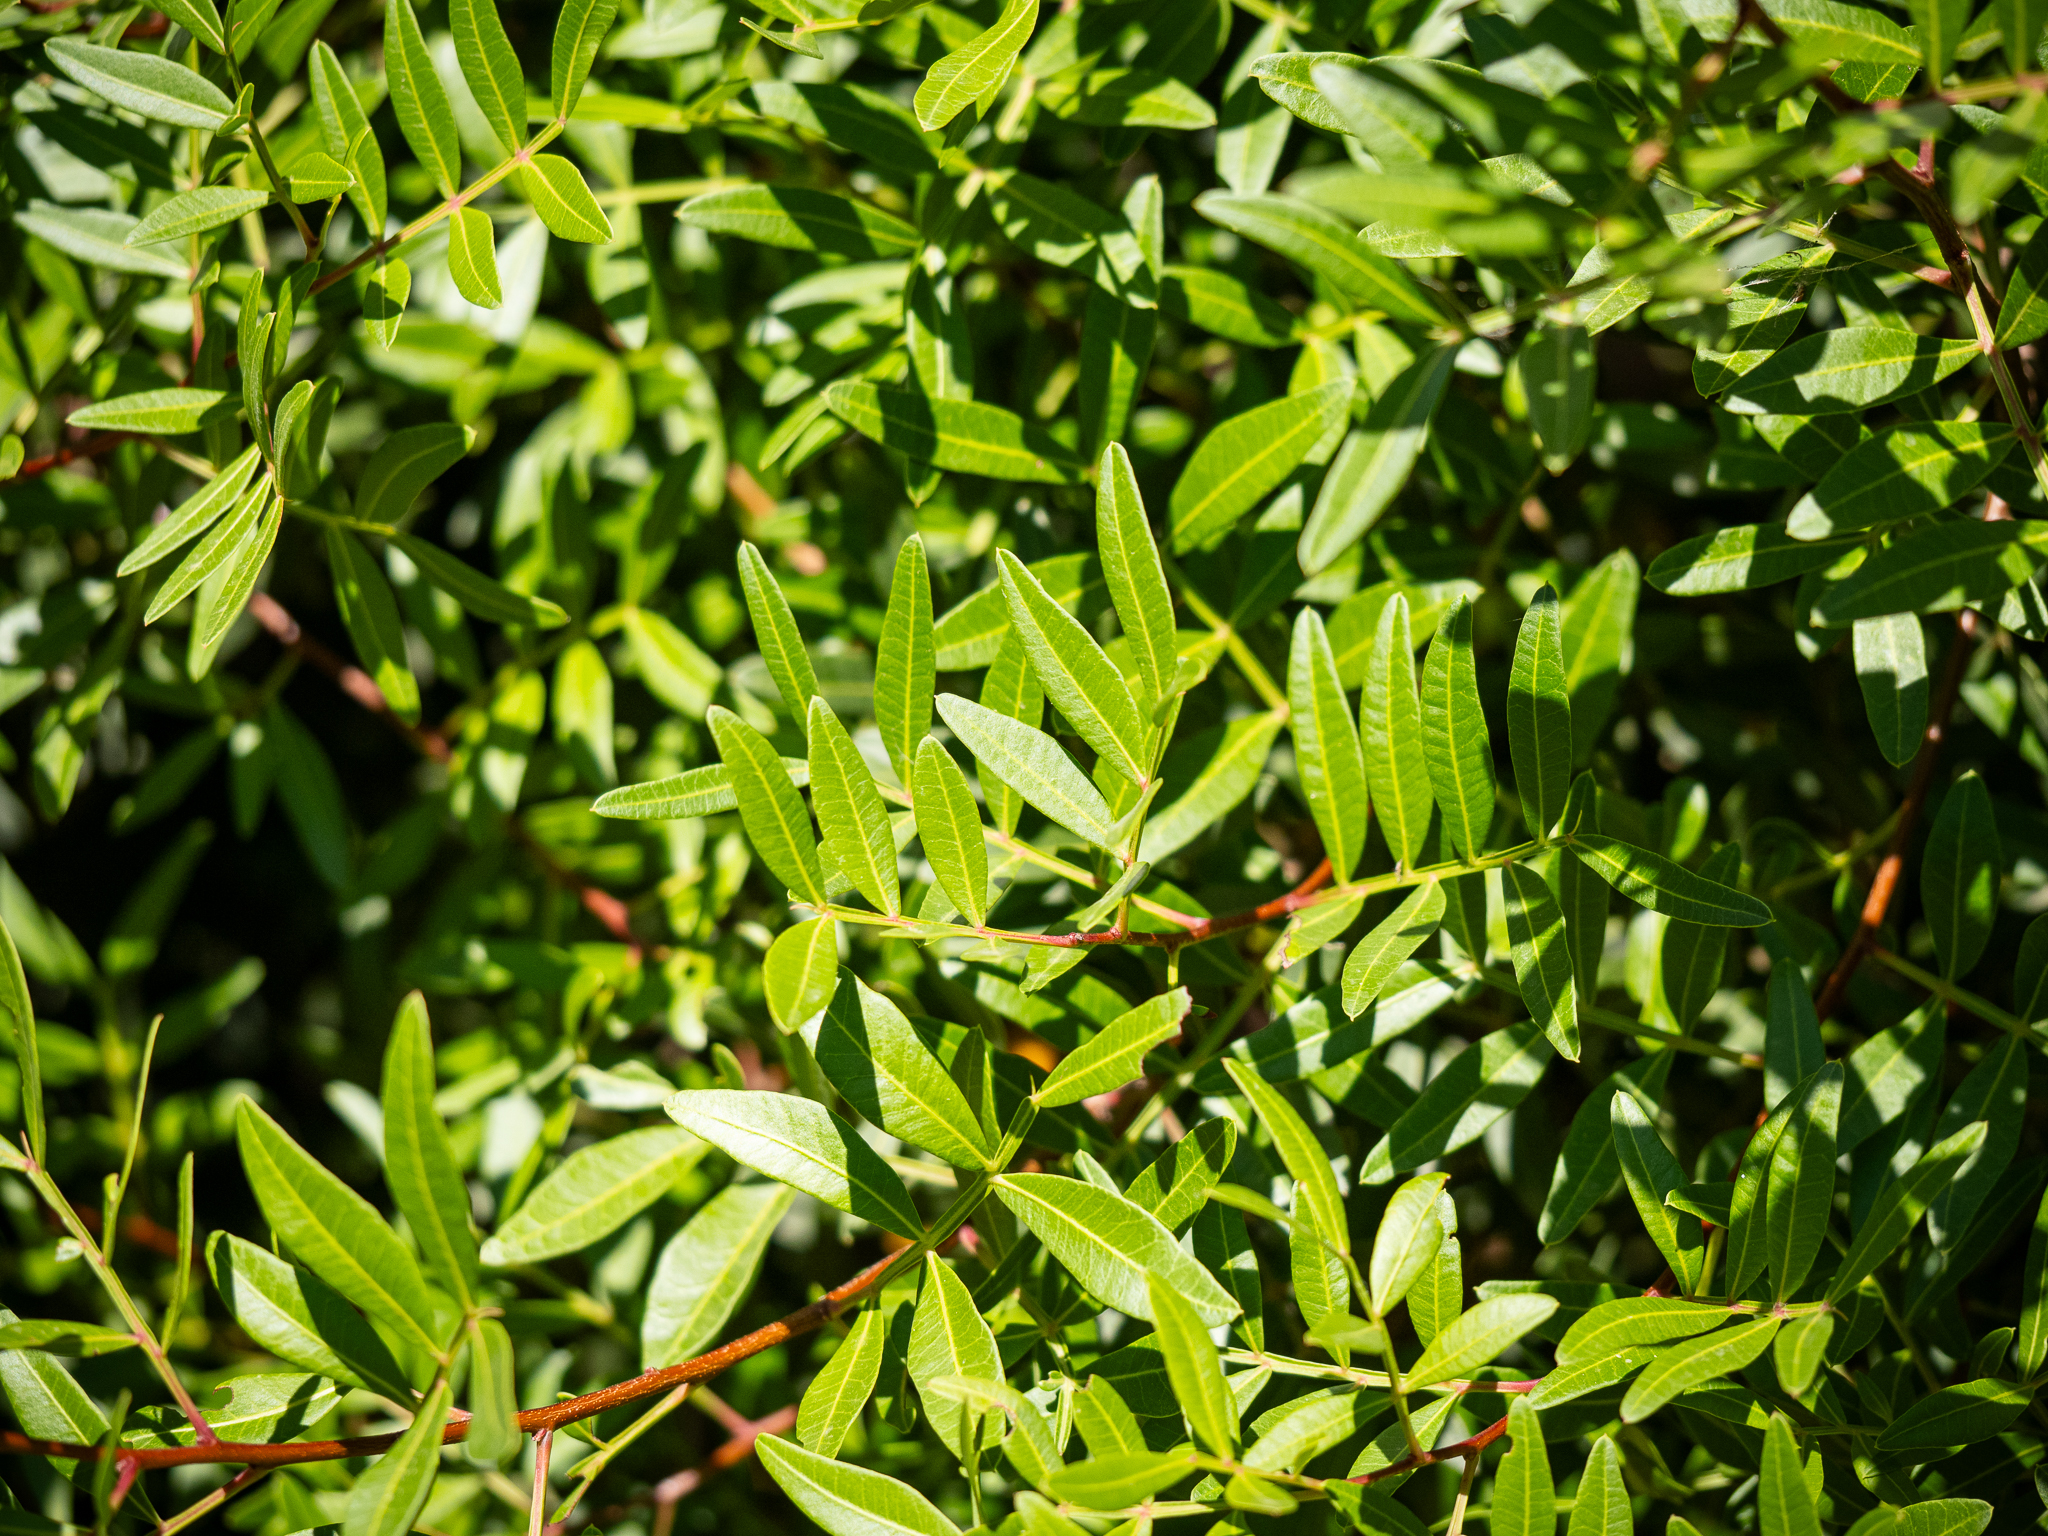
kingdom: Plantae
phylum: Tracheophyta
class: Magnoliopsida
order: Sapindales
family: Anacardiaceae
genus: Pistacia
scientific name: Pistacia lentiscus
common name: Lentisk
